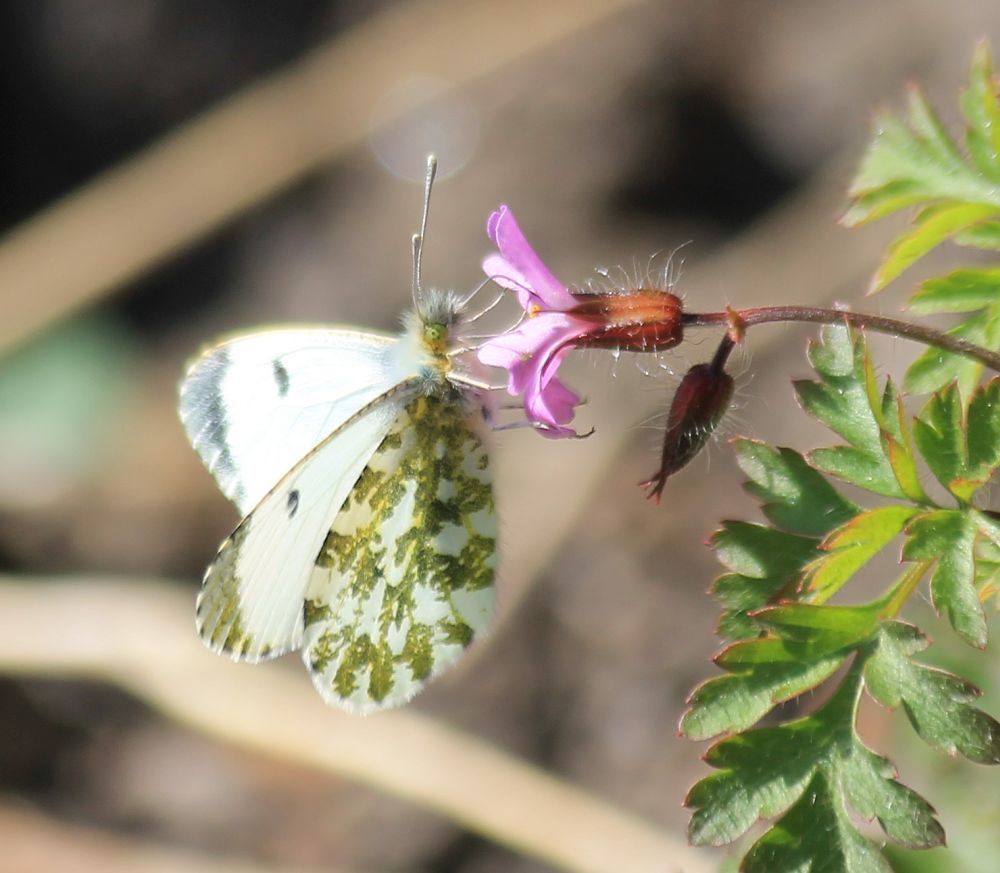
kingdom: Animalia
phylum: Arthropoda
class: Insecta
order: Lepidoptera
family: Pieridae
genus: Anthocharis
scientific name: Anthocharis cardamines
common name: Orange-tip
